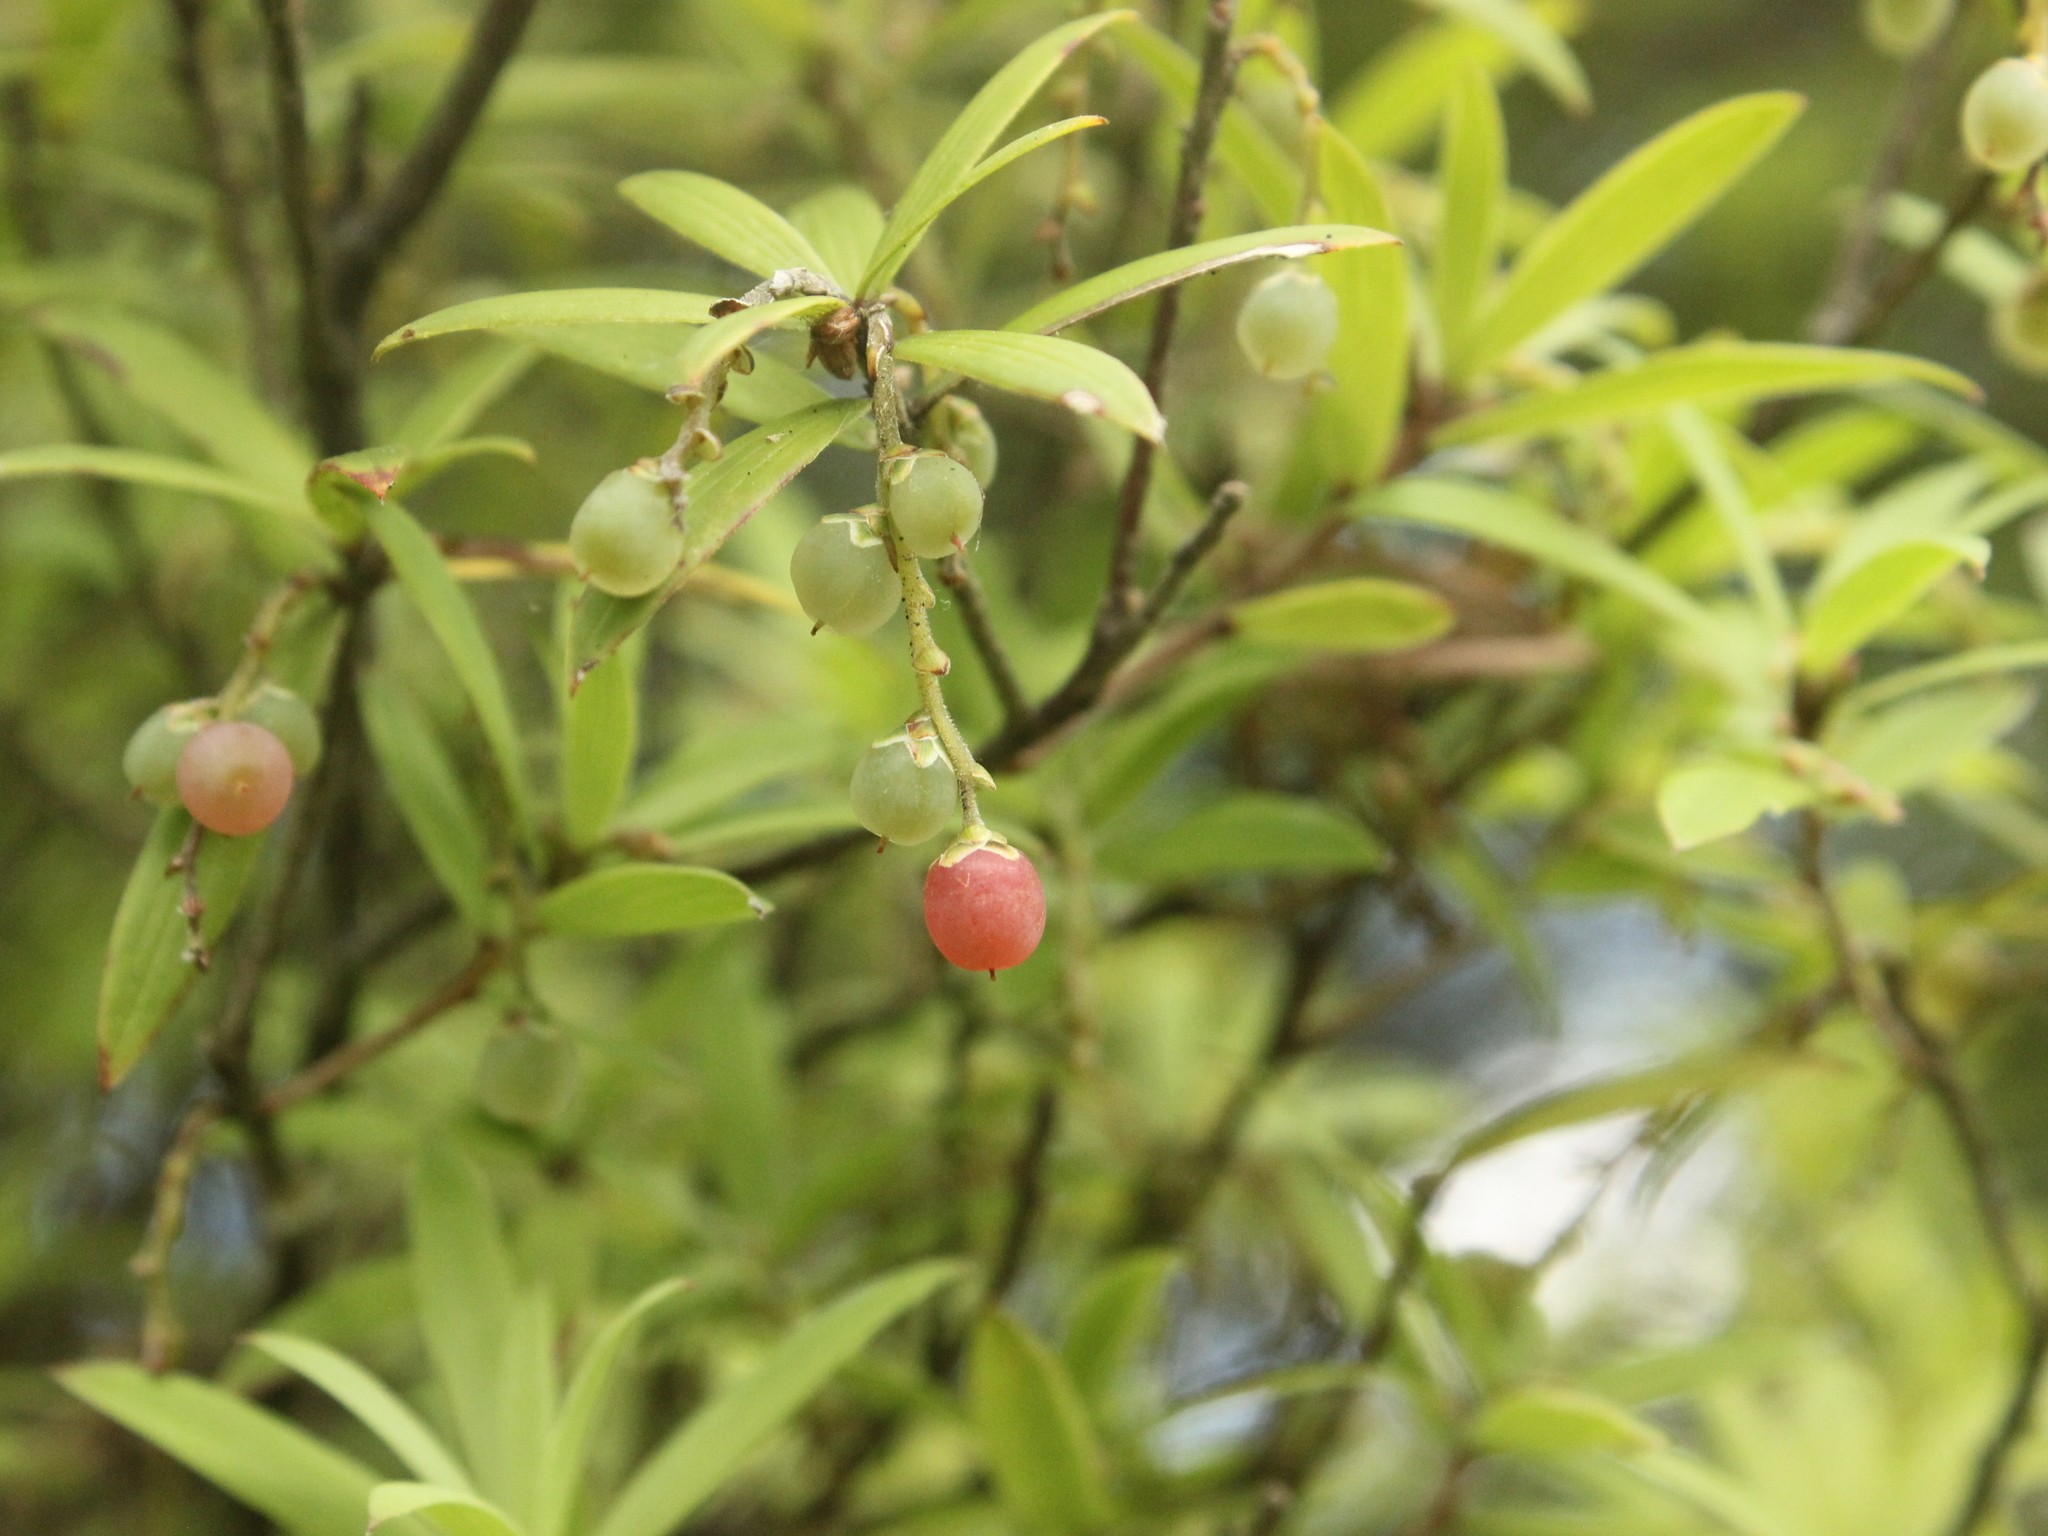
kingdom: Plantae
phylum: Tracheophyta
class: Magnoliopsida
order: Ericales
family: Ericaceae
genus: Leucopogon
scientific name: Leucopogon fasciculatus
